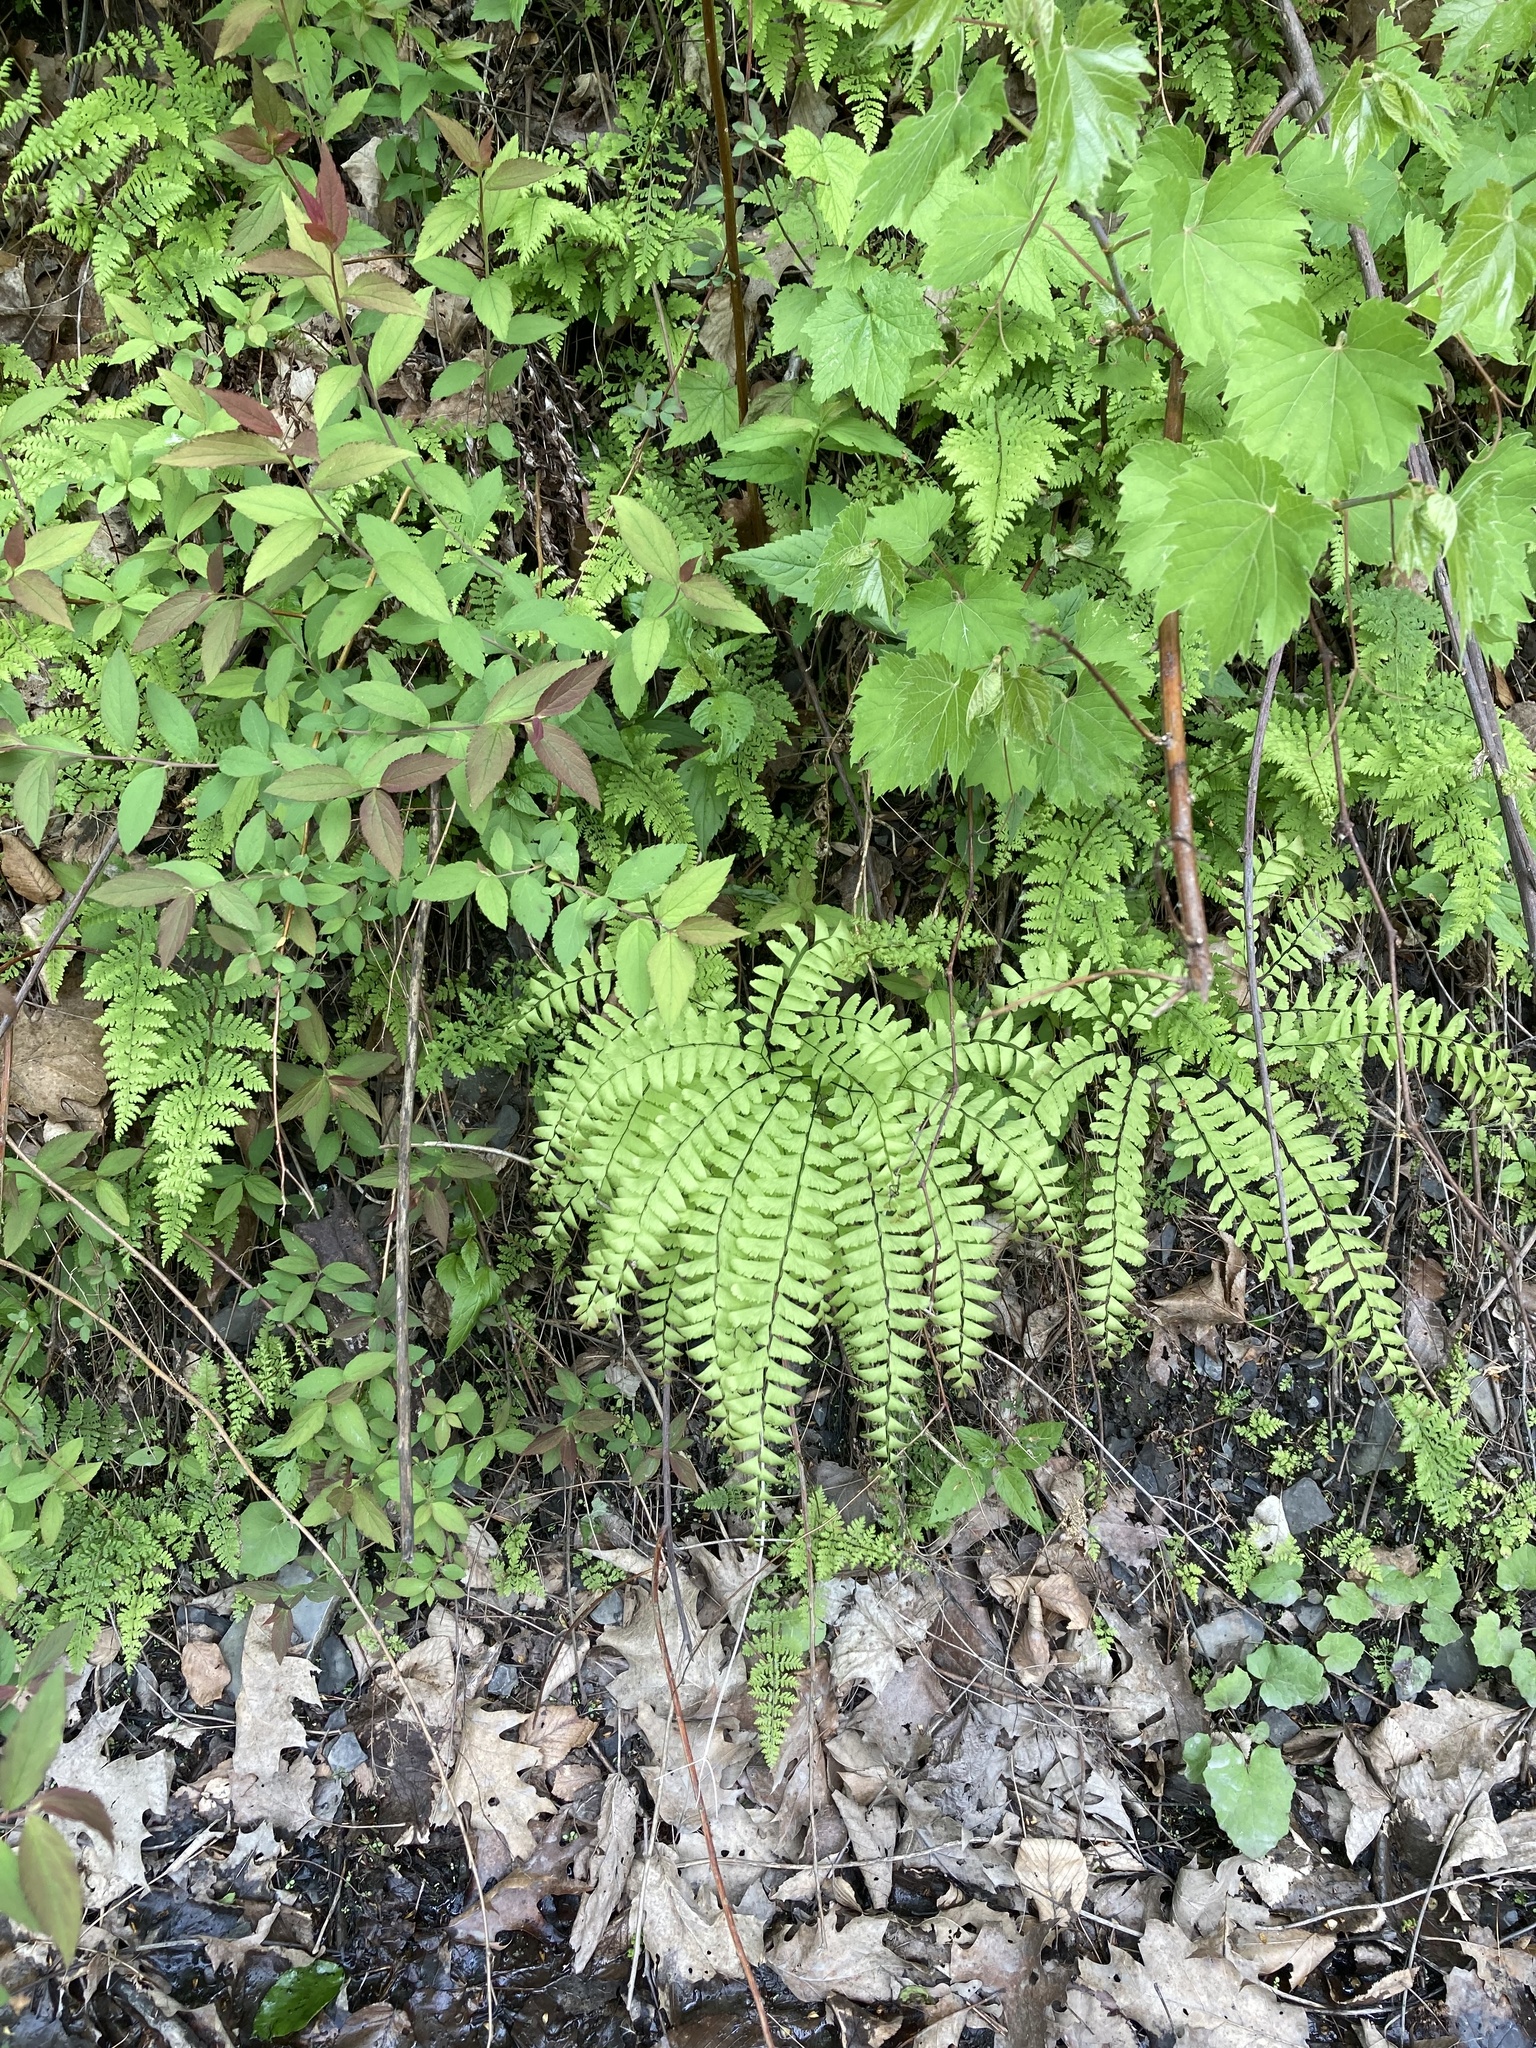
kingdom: Plantae
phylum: Tracheophyta
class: Polypodiopsida
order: Polypodiales
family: Pteridaceae
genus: Adiantum
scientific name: Adiantum pedatum
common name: Five-finger fern
